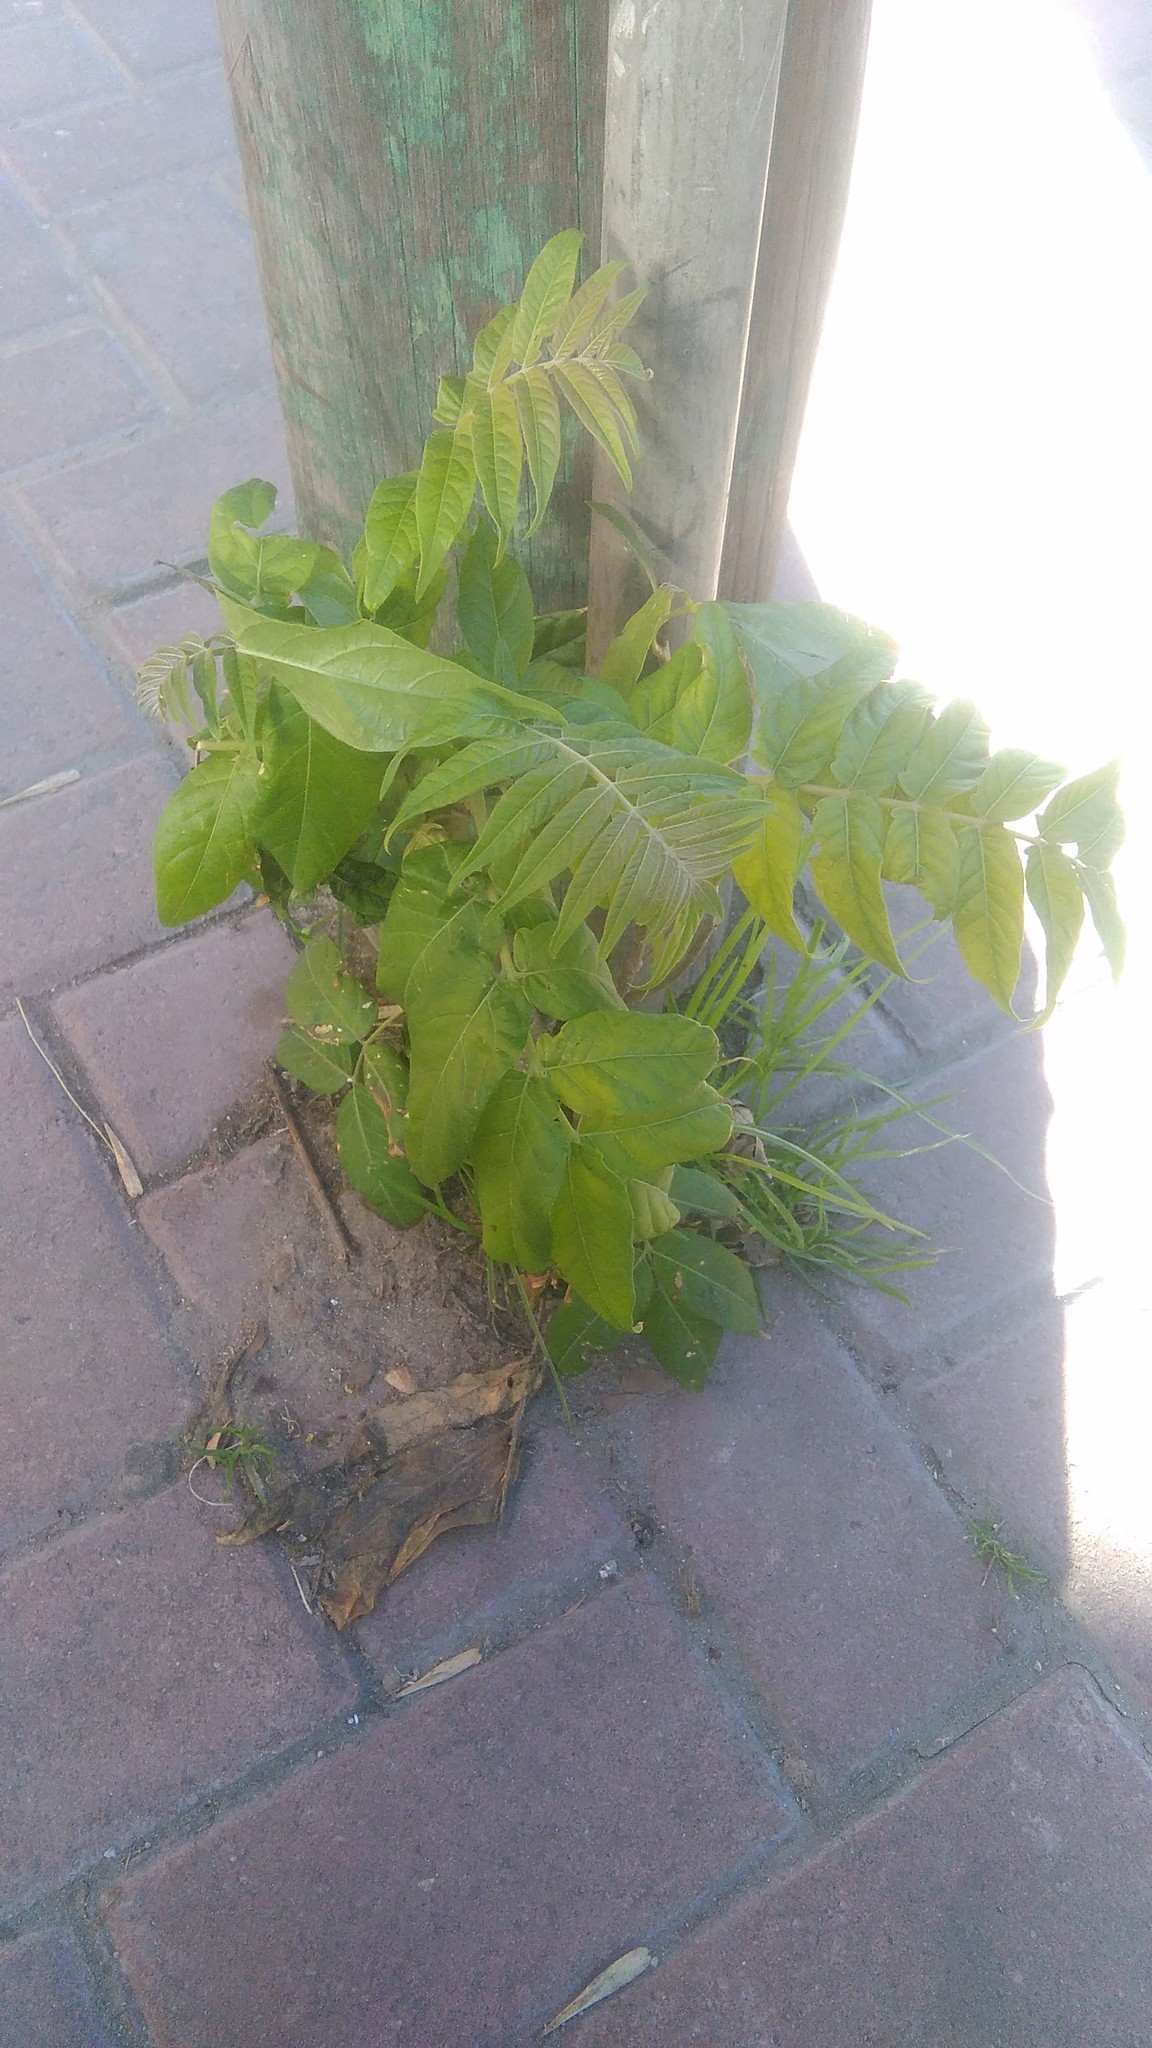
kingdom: Plantae
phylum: Tracheophyta
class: Magnoliopsida
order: Sapindales
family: Simaroubaceae
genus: Ailanthus
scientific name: Ailanthus altissima
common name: Tree-of-heaven
